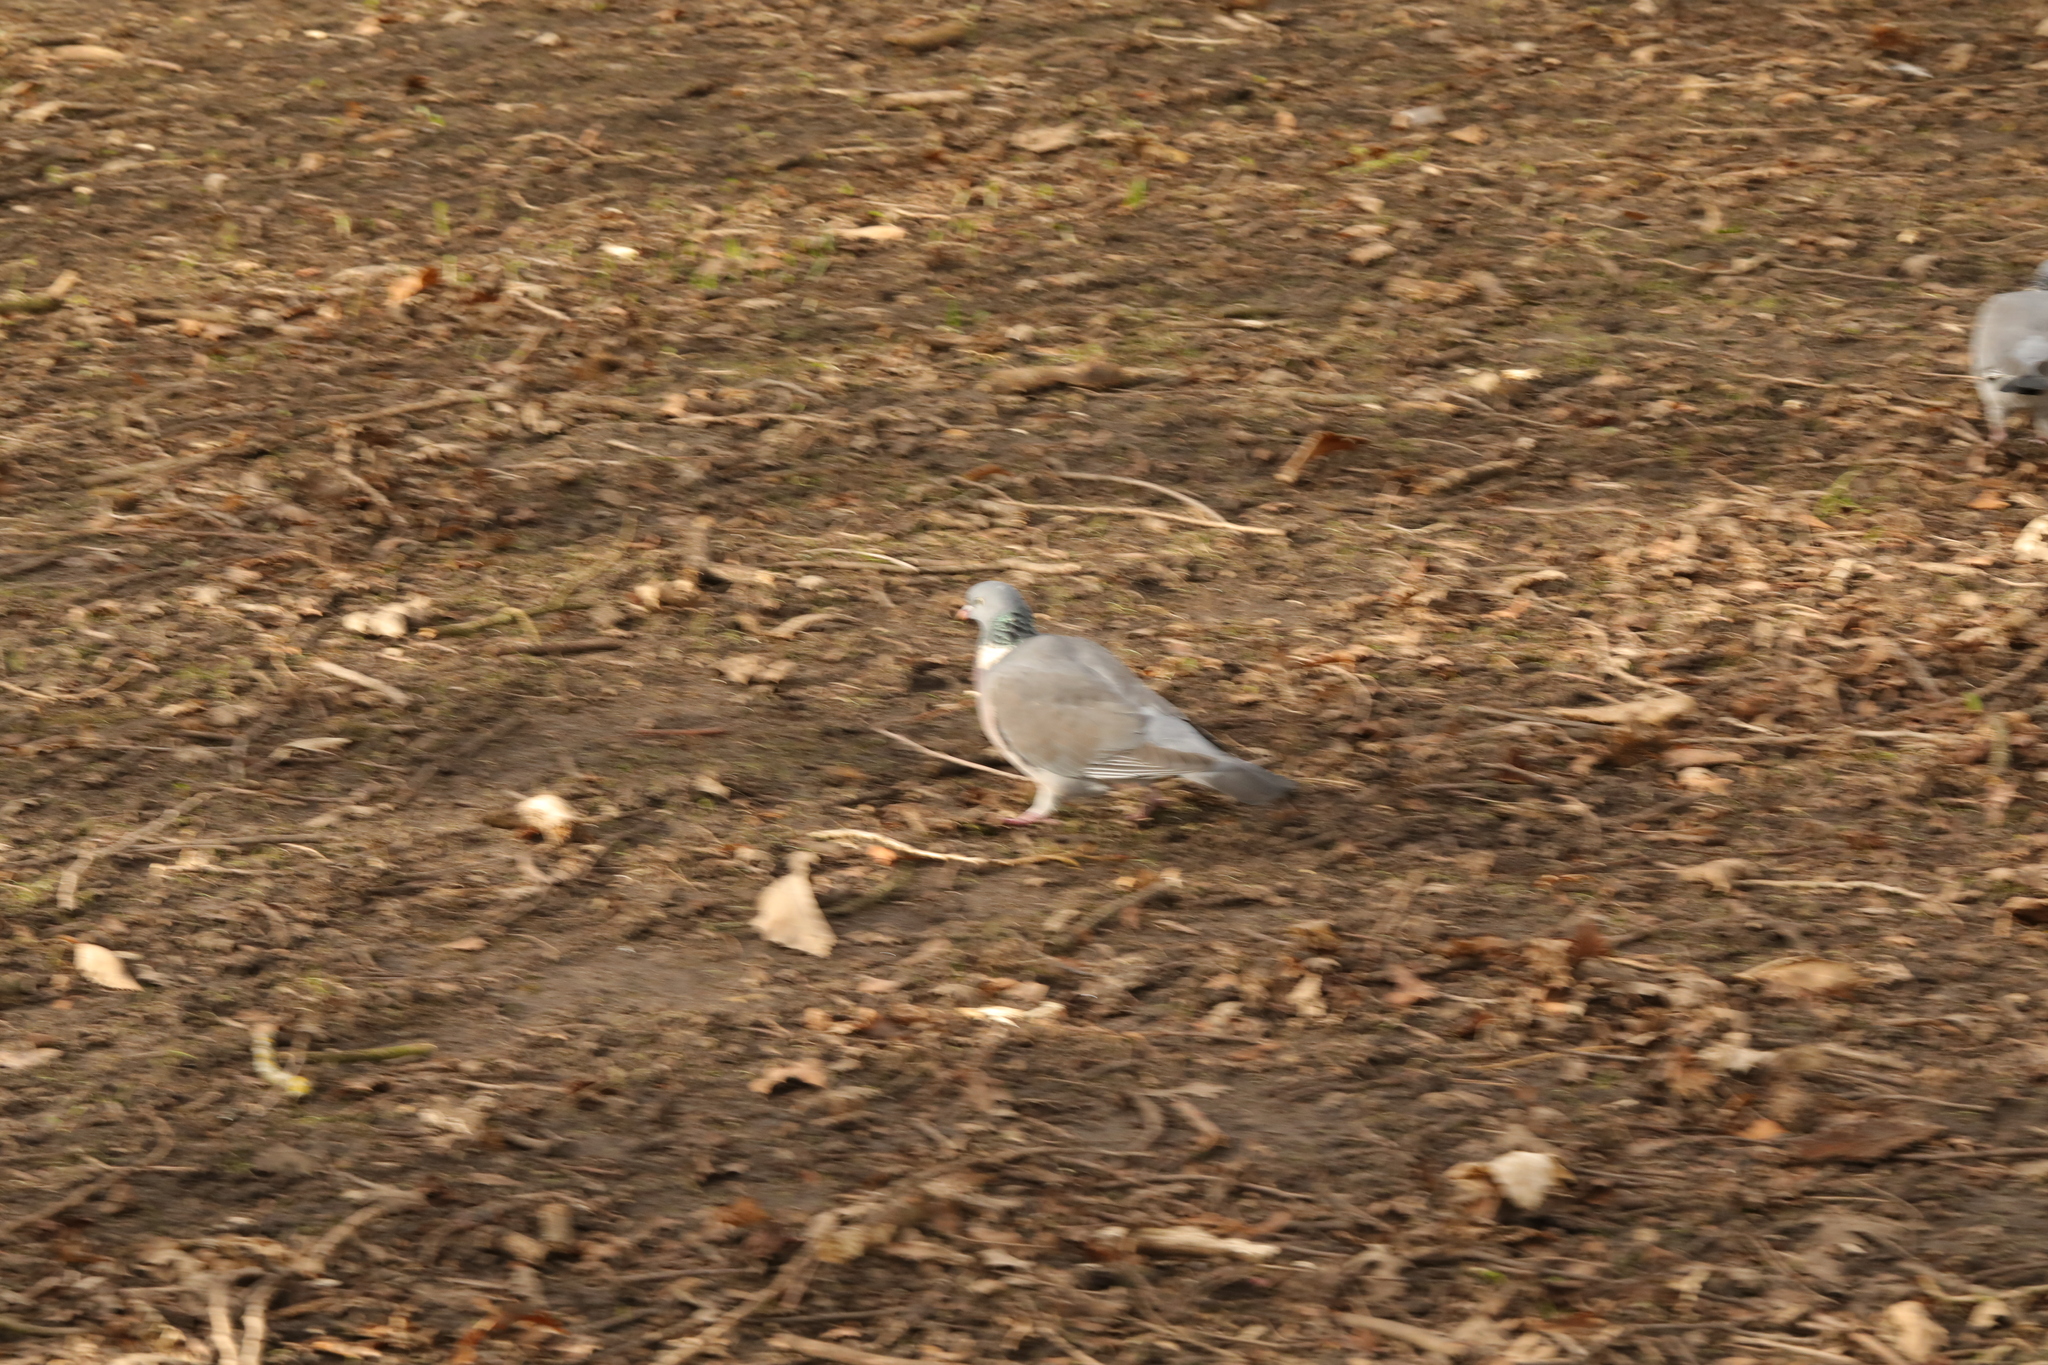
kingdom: Animalia
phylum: Chordata
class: Aves
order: Columbiformes
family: Columbidae
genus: Columba
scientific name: Columba palumbus
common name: Common wood pigeon
